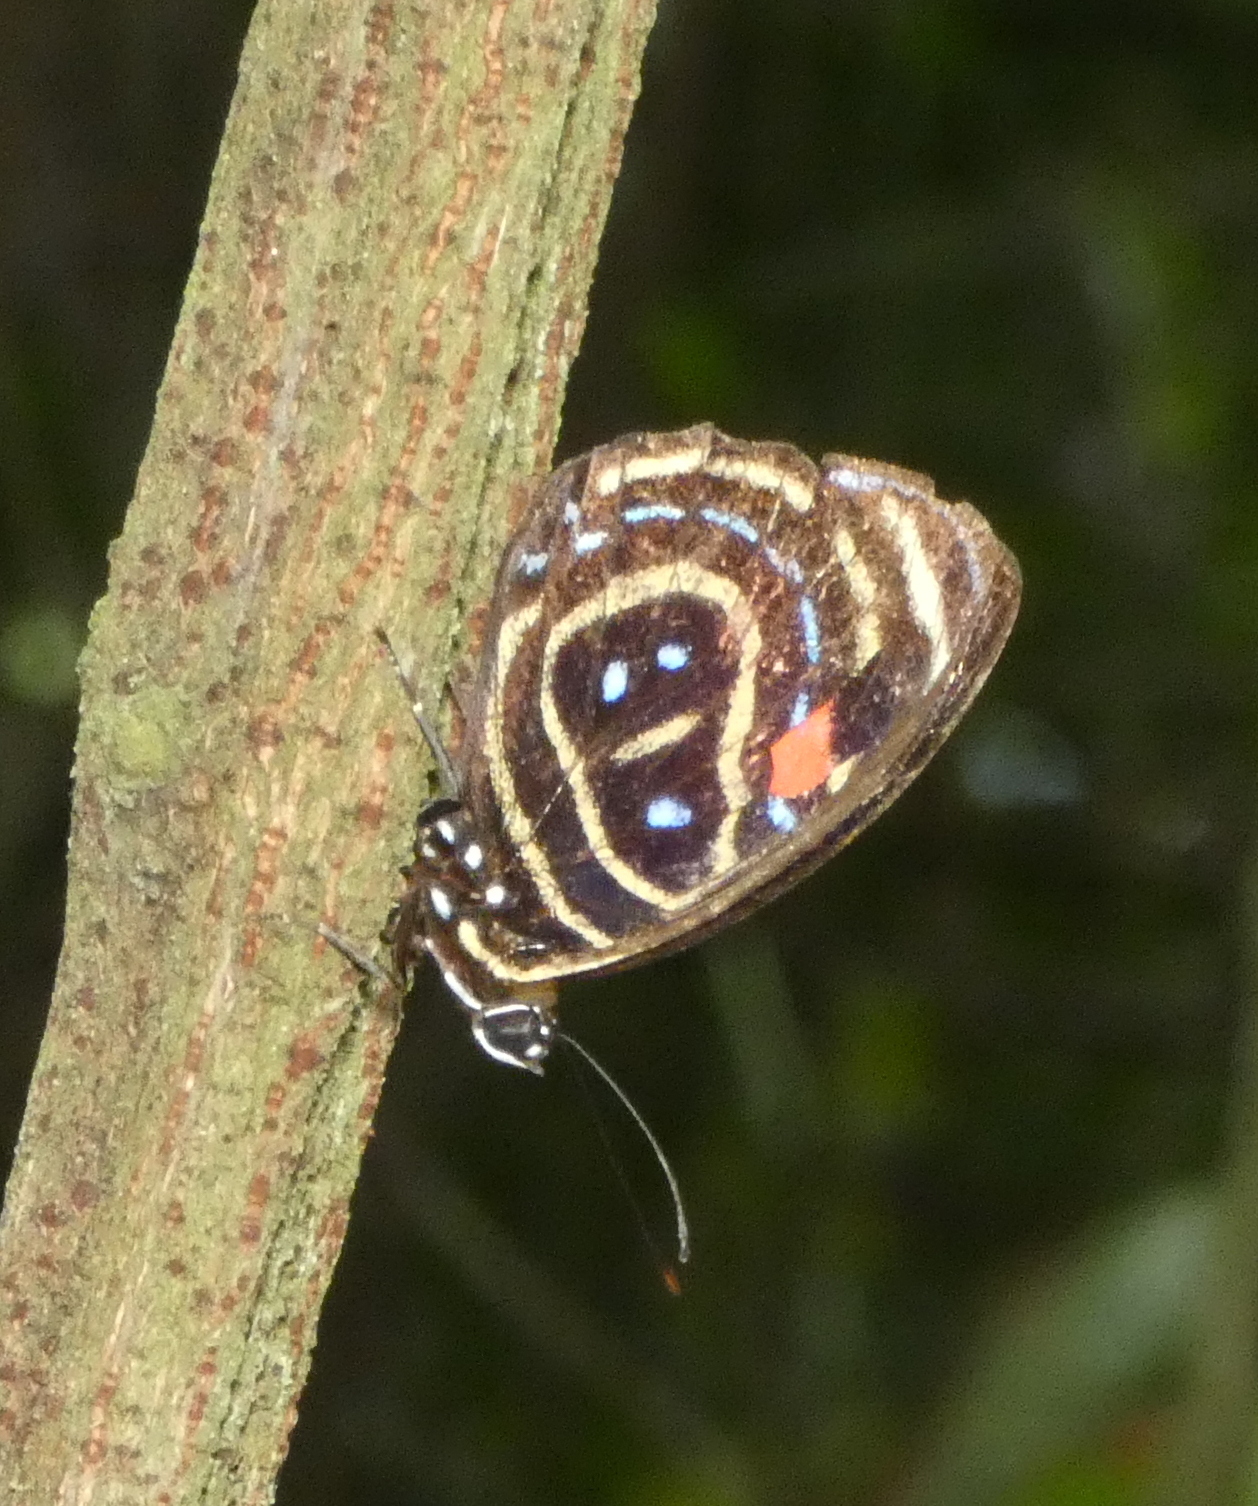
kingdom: Animalia
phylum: Arthropoda
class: Insecta
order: Lepidoptera
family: Nymphalidae
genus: Catagramma
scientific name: Catagramma astarte
